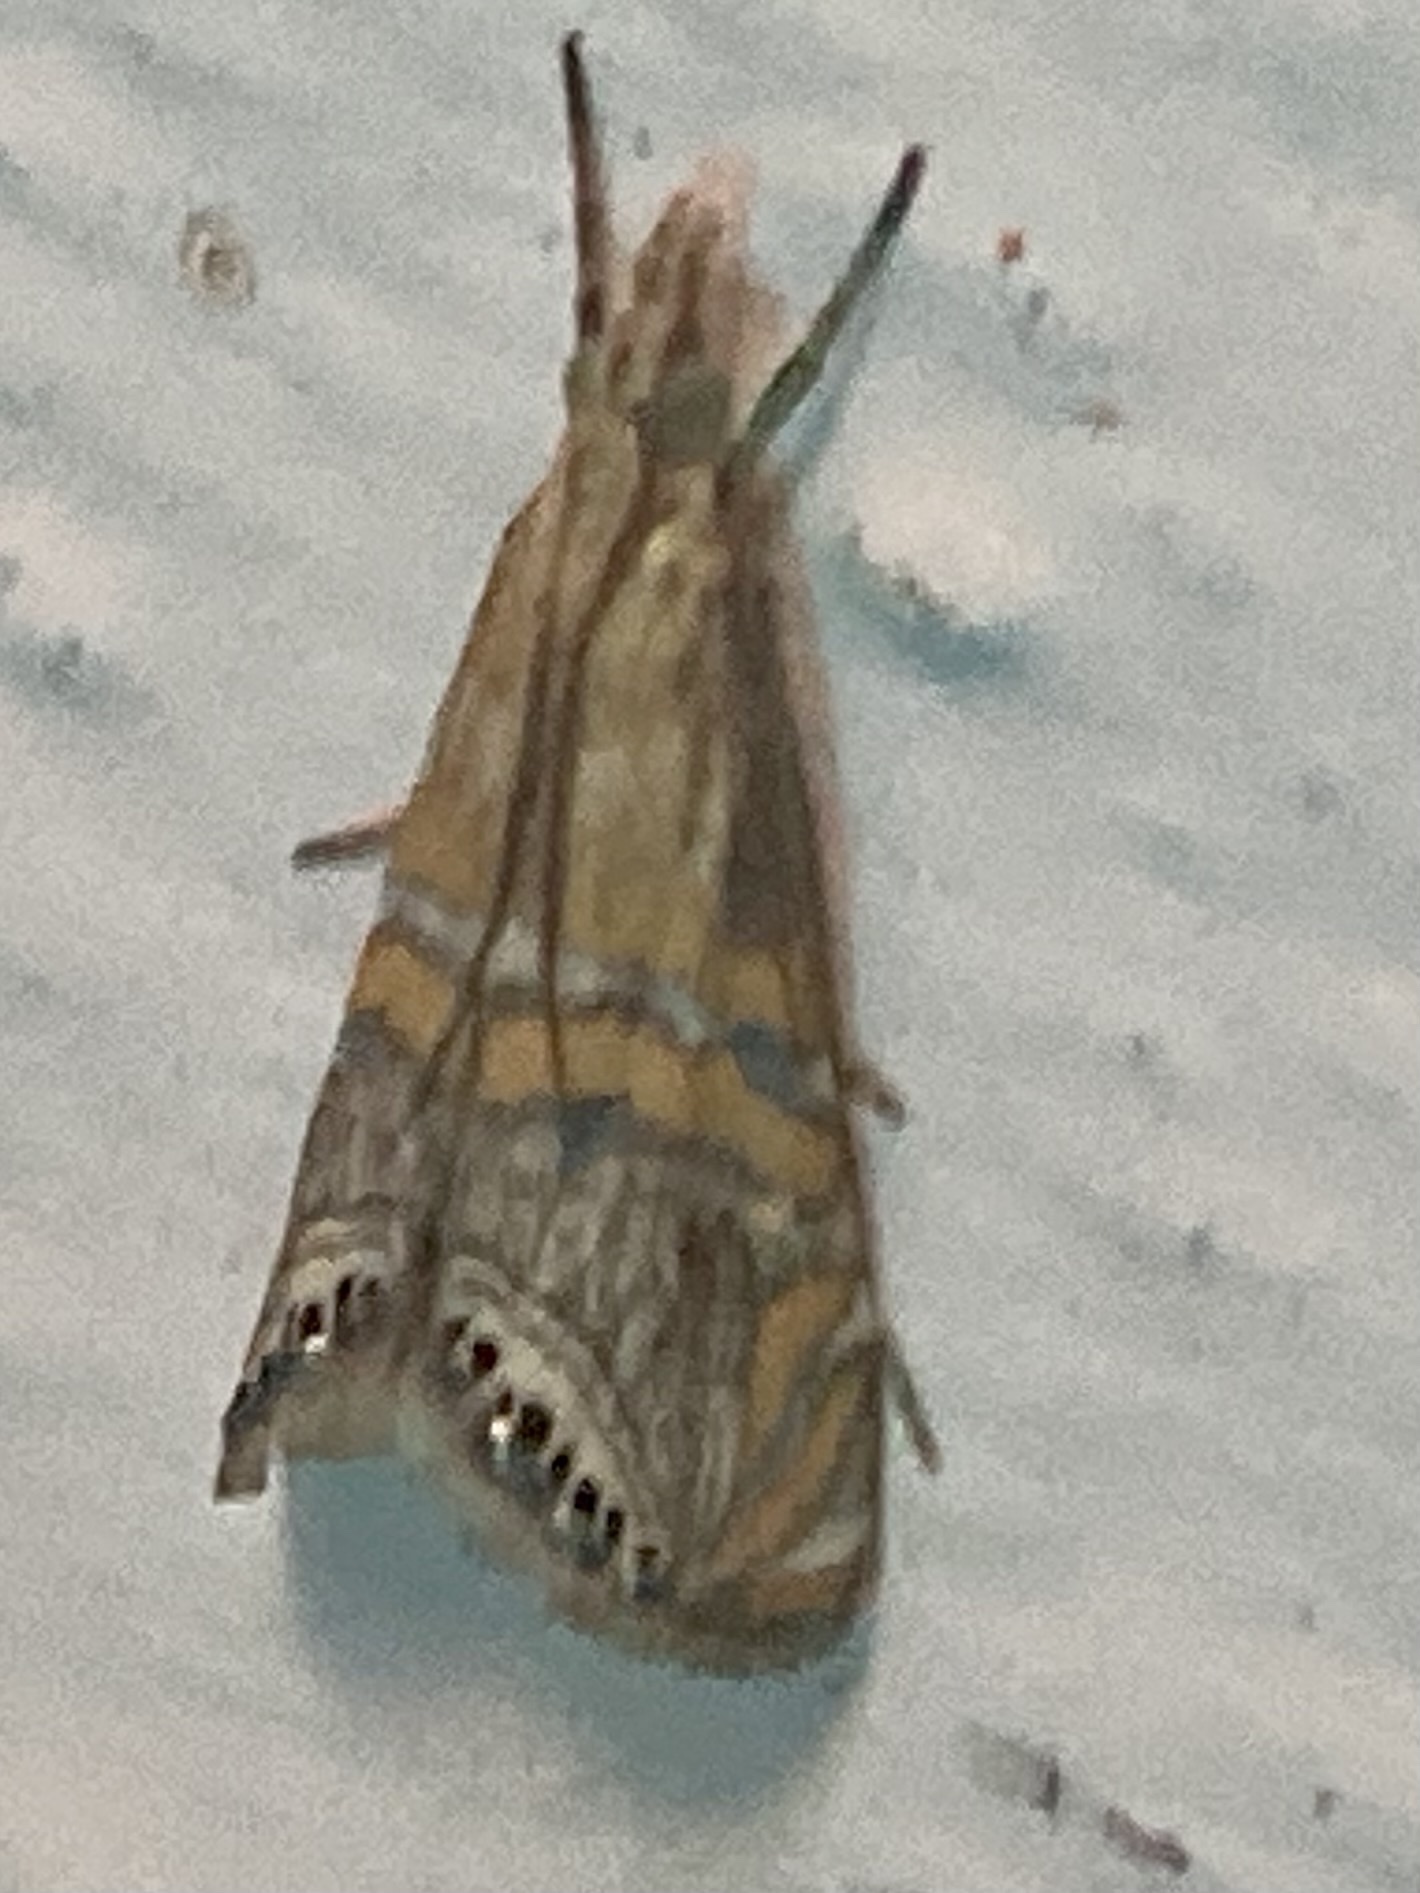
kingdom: Animalia
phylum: Arthropoda
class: Insecta
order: Lepidoptera
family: Crambidae
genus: Euchromius
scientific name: Euchromius bella
